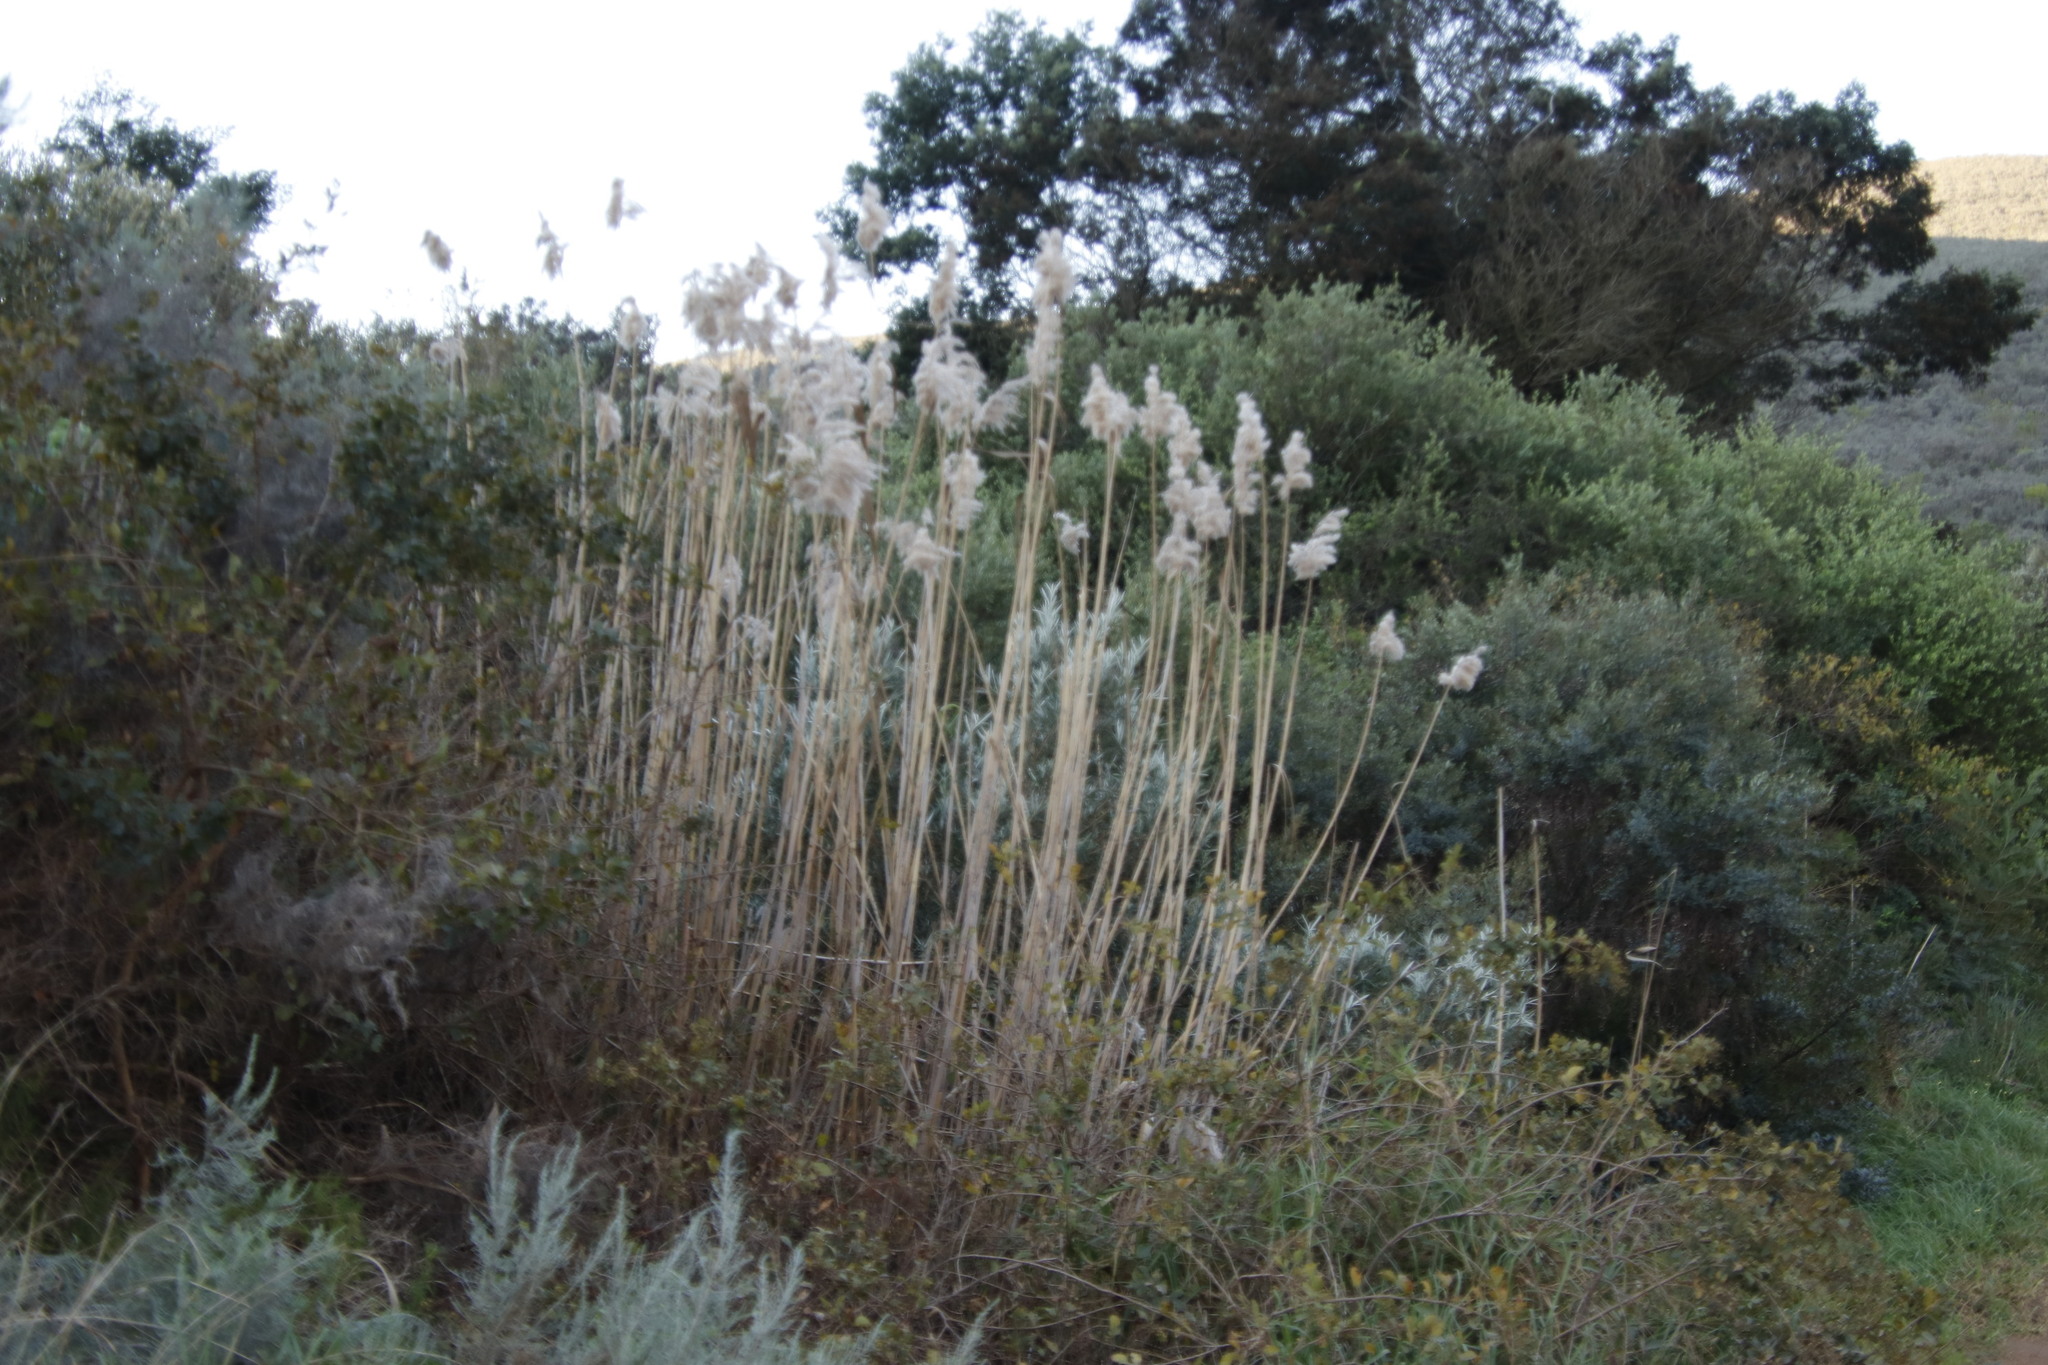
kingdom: Plantae
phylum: Tracheophyta
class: Liliopsida
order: Poales
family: Poaceae
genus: Phragmites
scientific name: Phragmites australis
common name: Common reed
